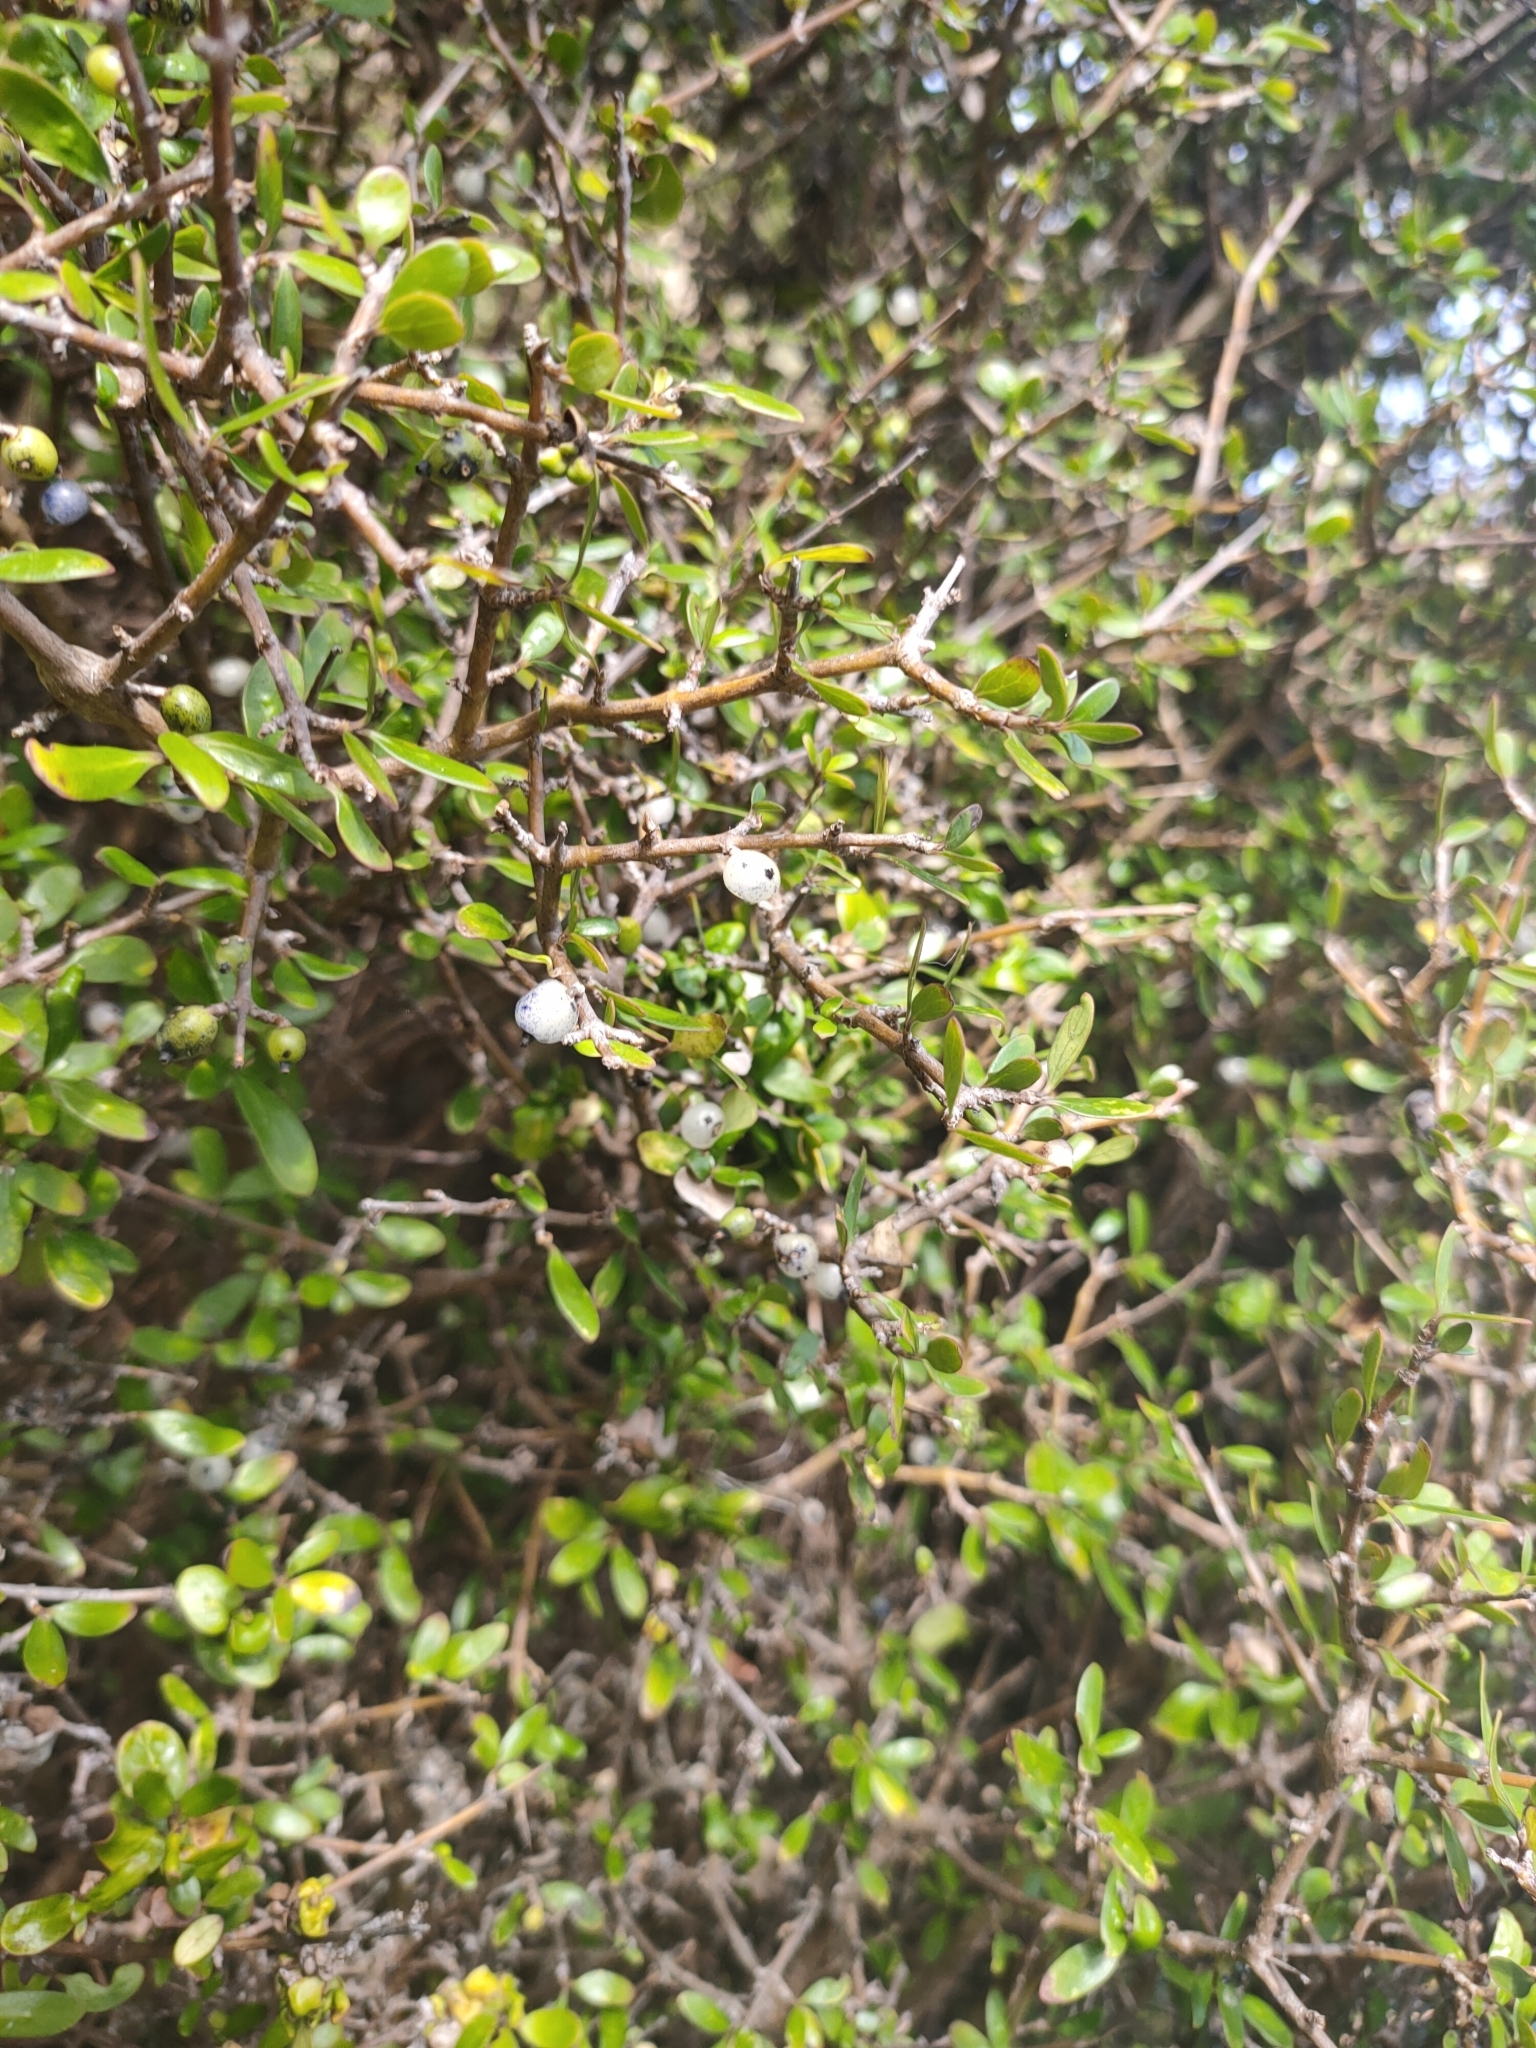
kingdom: Plantae
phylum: Tracheophyta
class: Magnoliopsida
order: Gentianales
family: Rubiaceae
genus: Coprosma
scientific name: Coprosma propinqua
